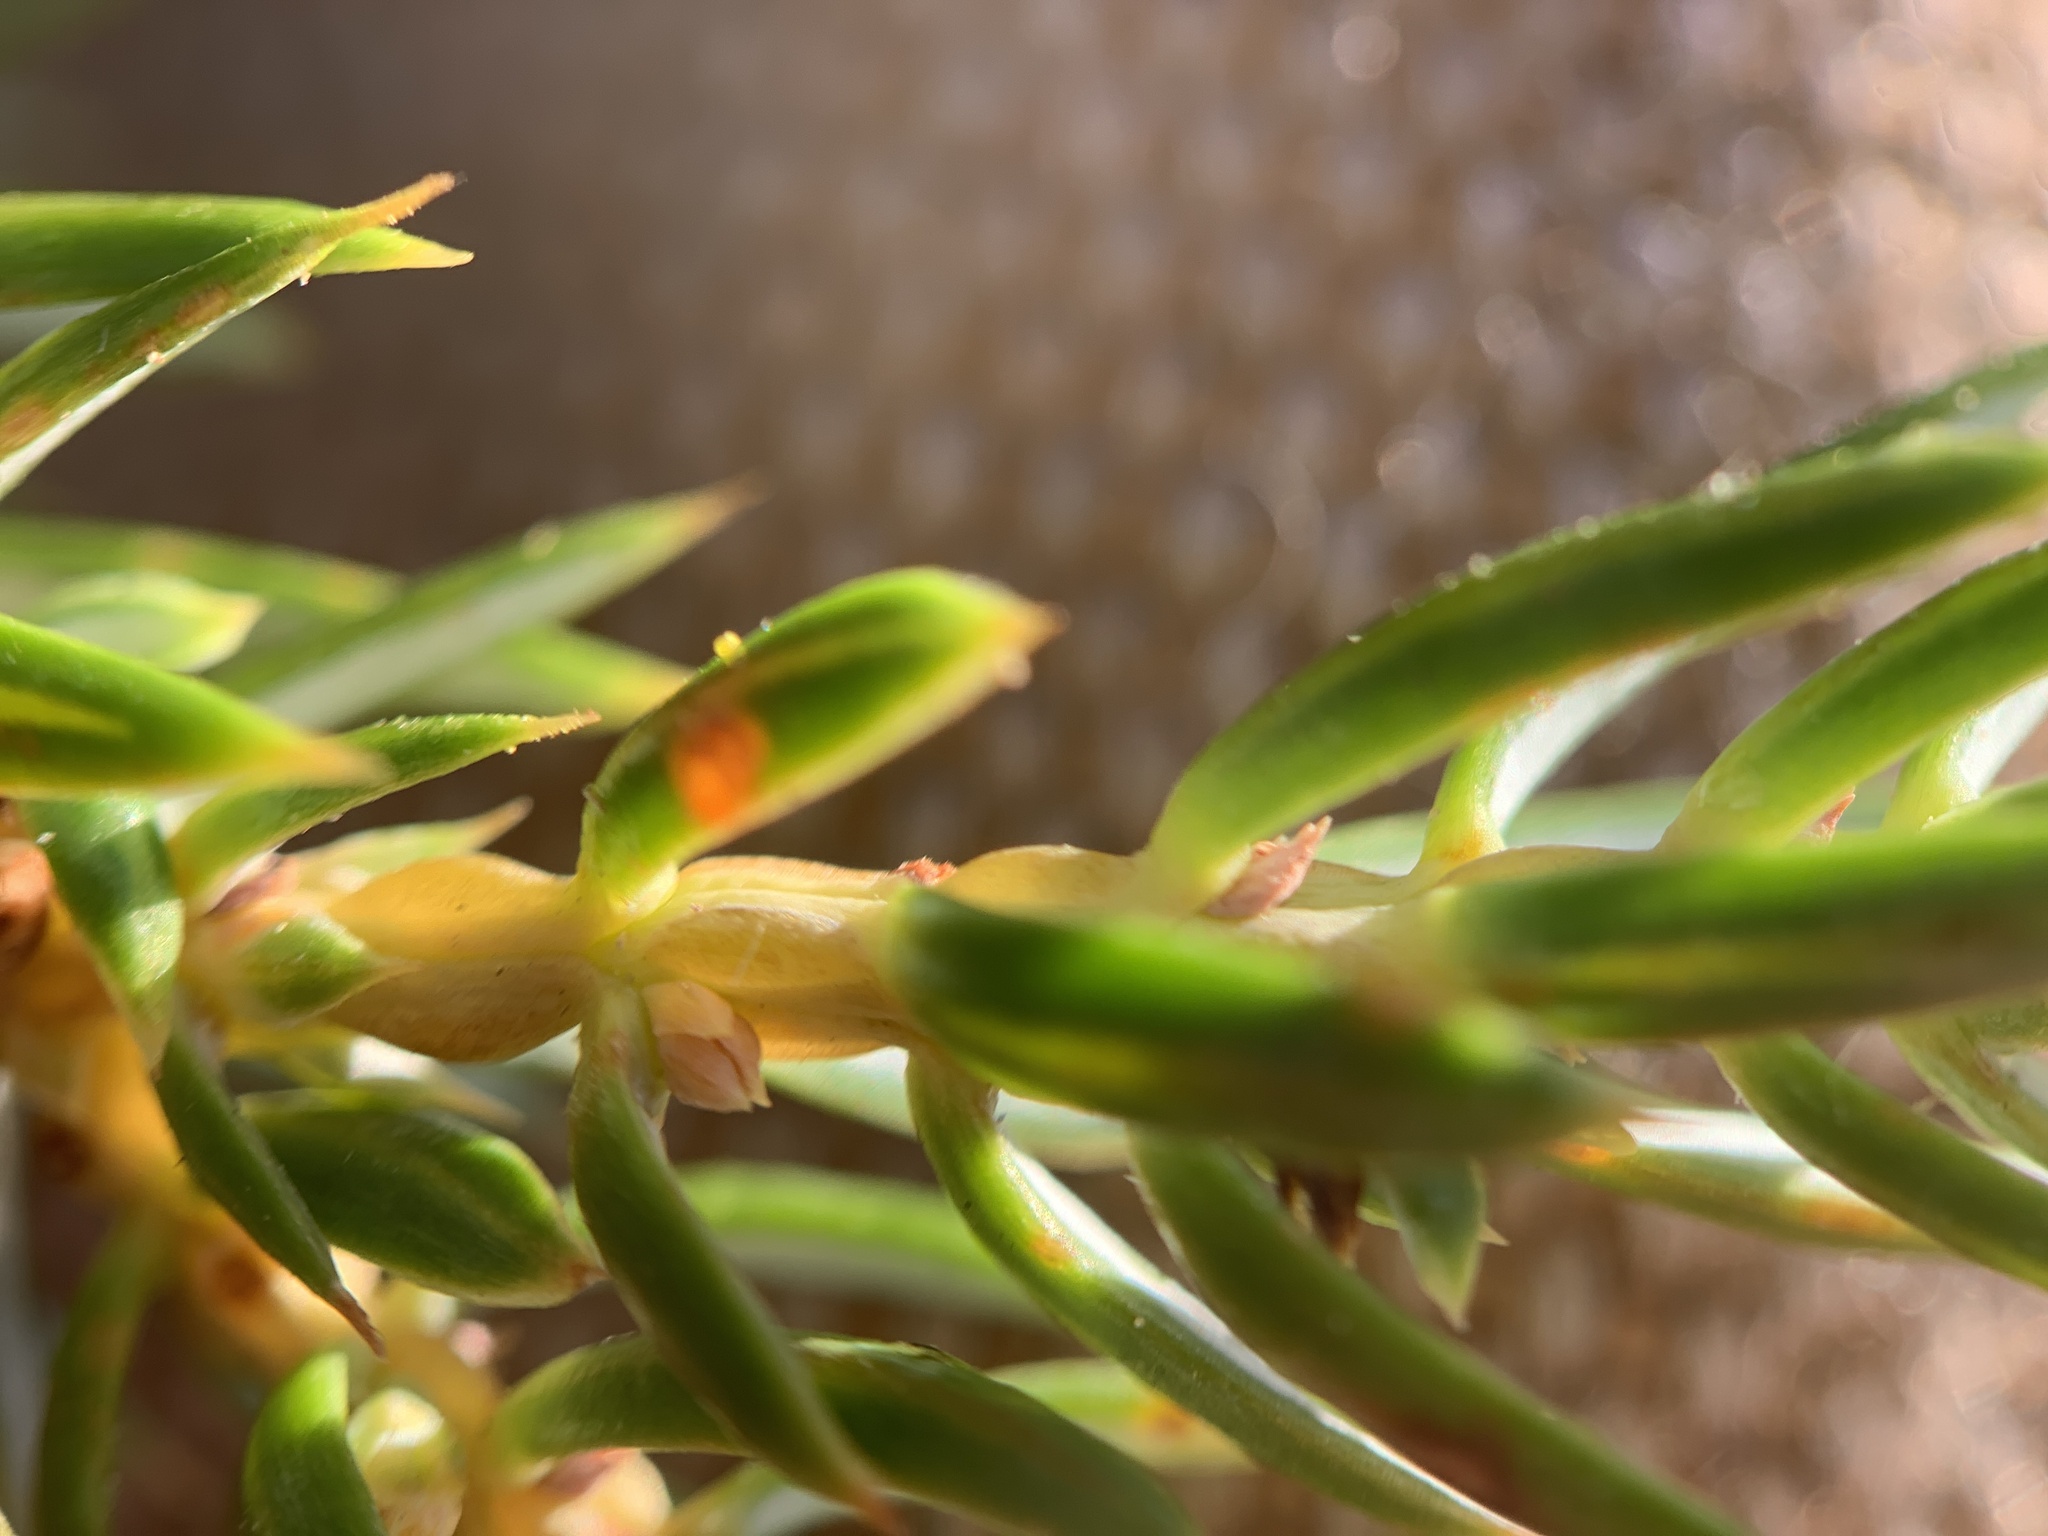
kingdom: Plantae
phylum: Tracheophyta
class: Pinopsida
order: Pinales
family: Cupressaceae
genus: Juniperus
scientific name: Juniperus communis
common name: Common juniper
